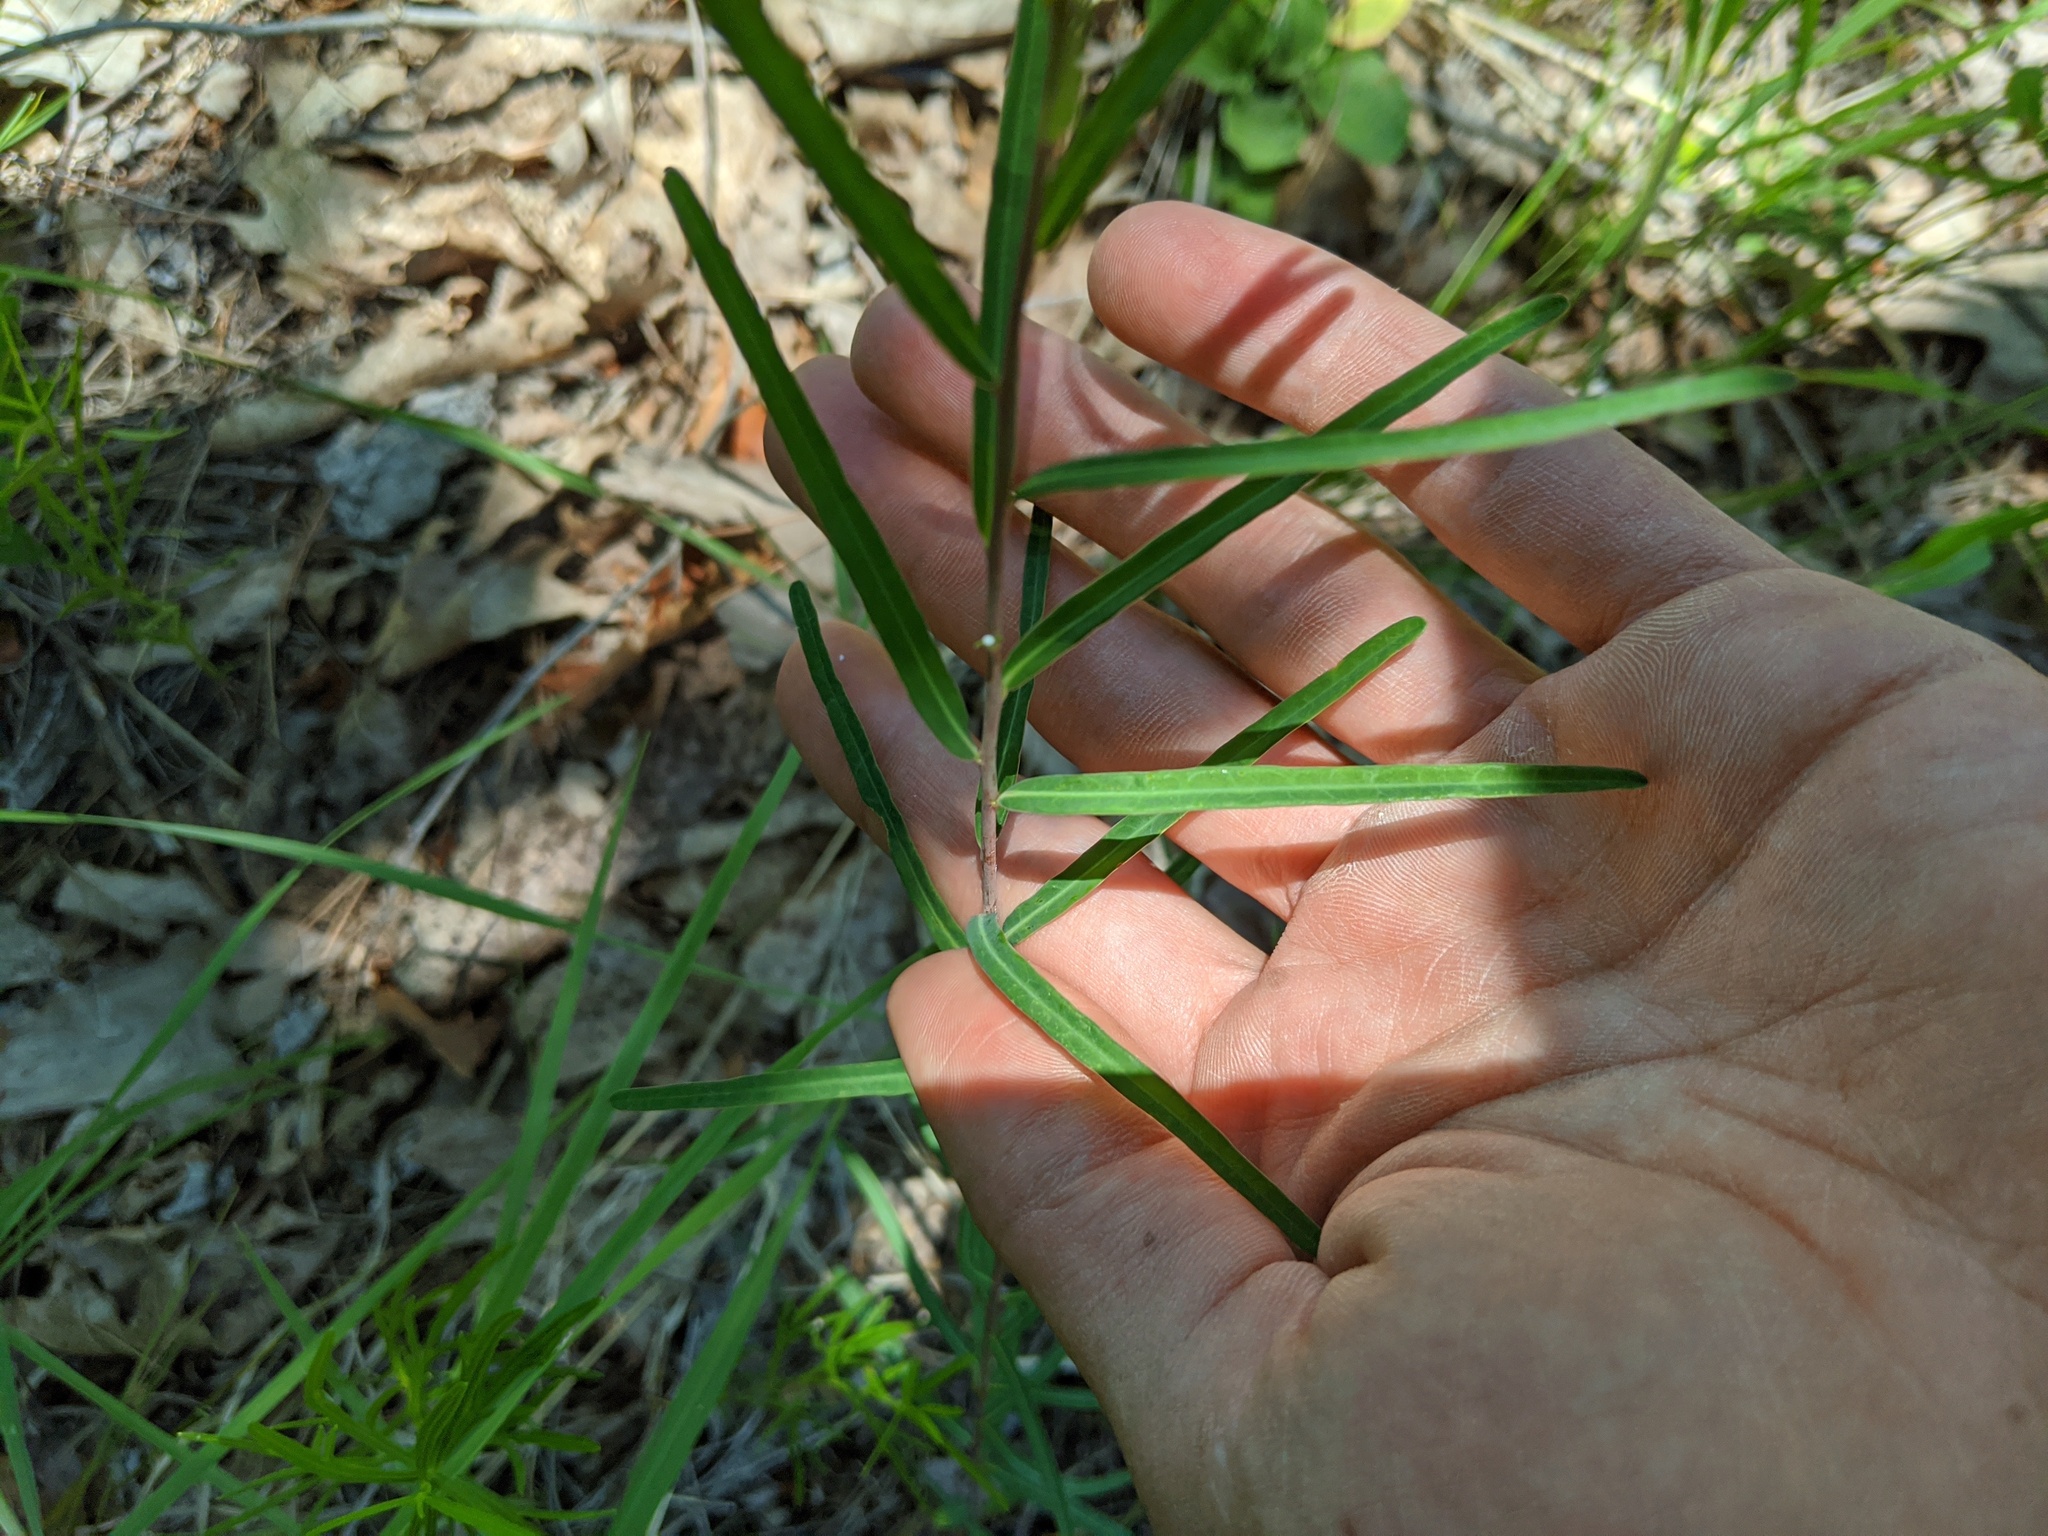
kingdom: Plantae
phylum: Tracheophyta
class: Magnoliopsida
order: Gentianales
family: Apocynaceae
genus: Asclepias
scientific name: Asclepias stenophylla
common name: Narrow-leaf milkweed
